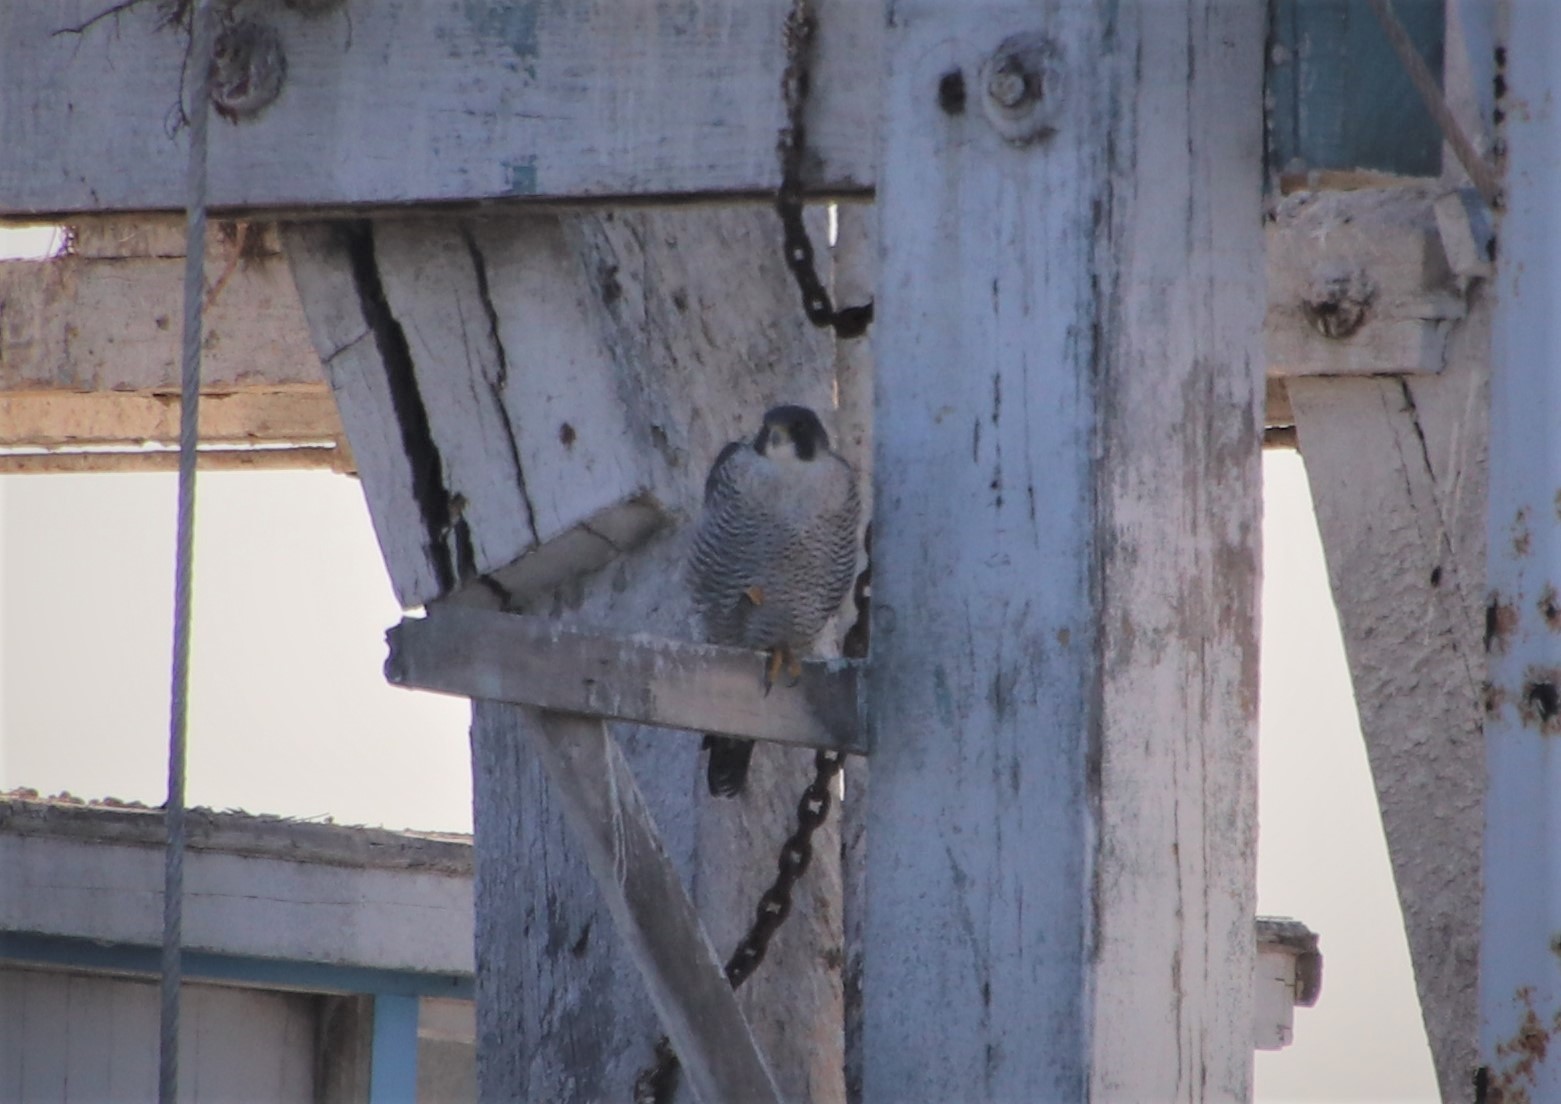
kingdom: Animalia
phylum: Chordata
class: Aves
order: Falconiformes
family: Falconidae
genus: Falco
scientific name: Falco peregrinus
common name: Peregrine falcon
